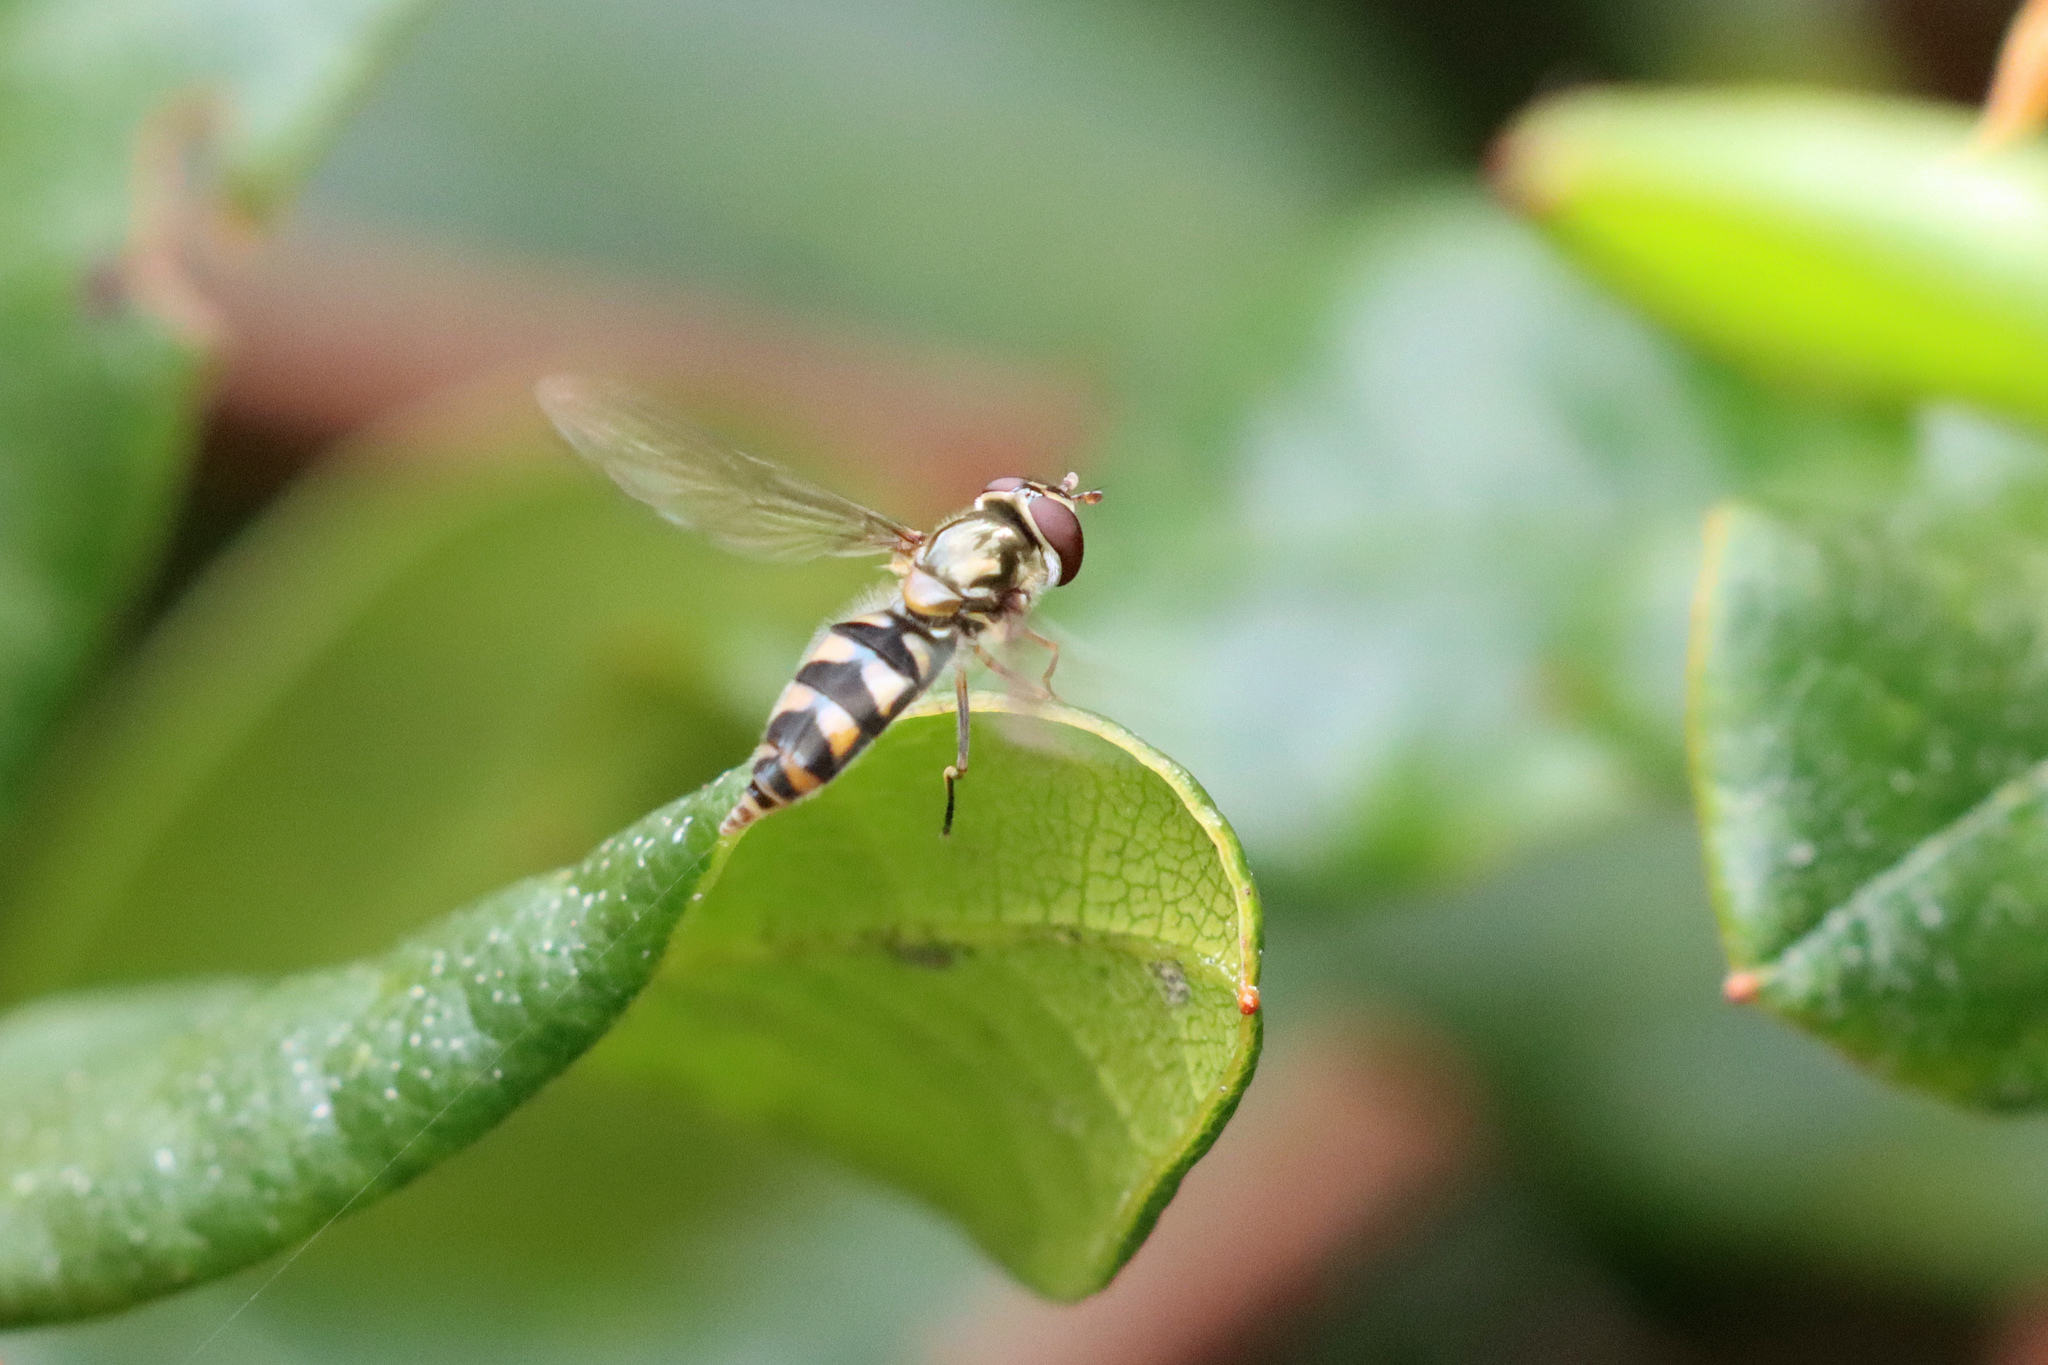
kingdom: Animalia
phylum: Arthropoda
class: Insecta
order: Diptera
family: Syrphidae
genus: Meliscaeva
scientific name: Meliscaeva auricollis
